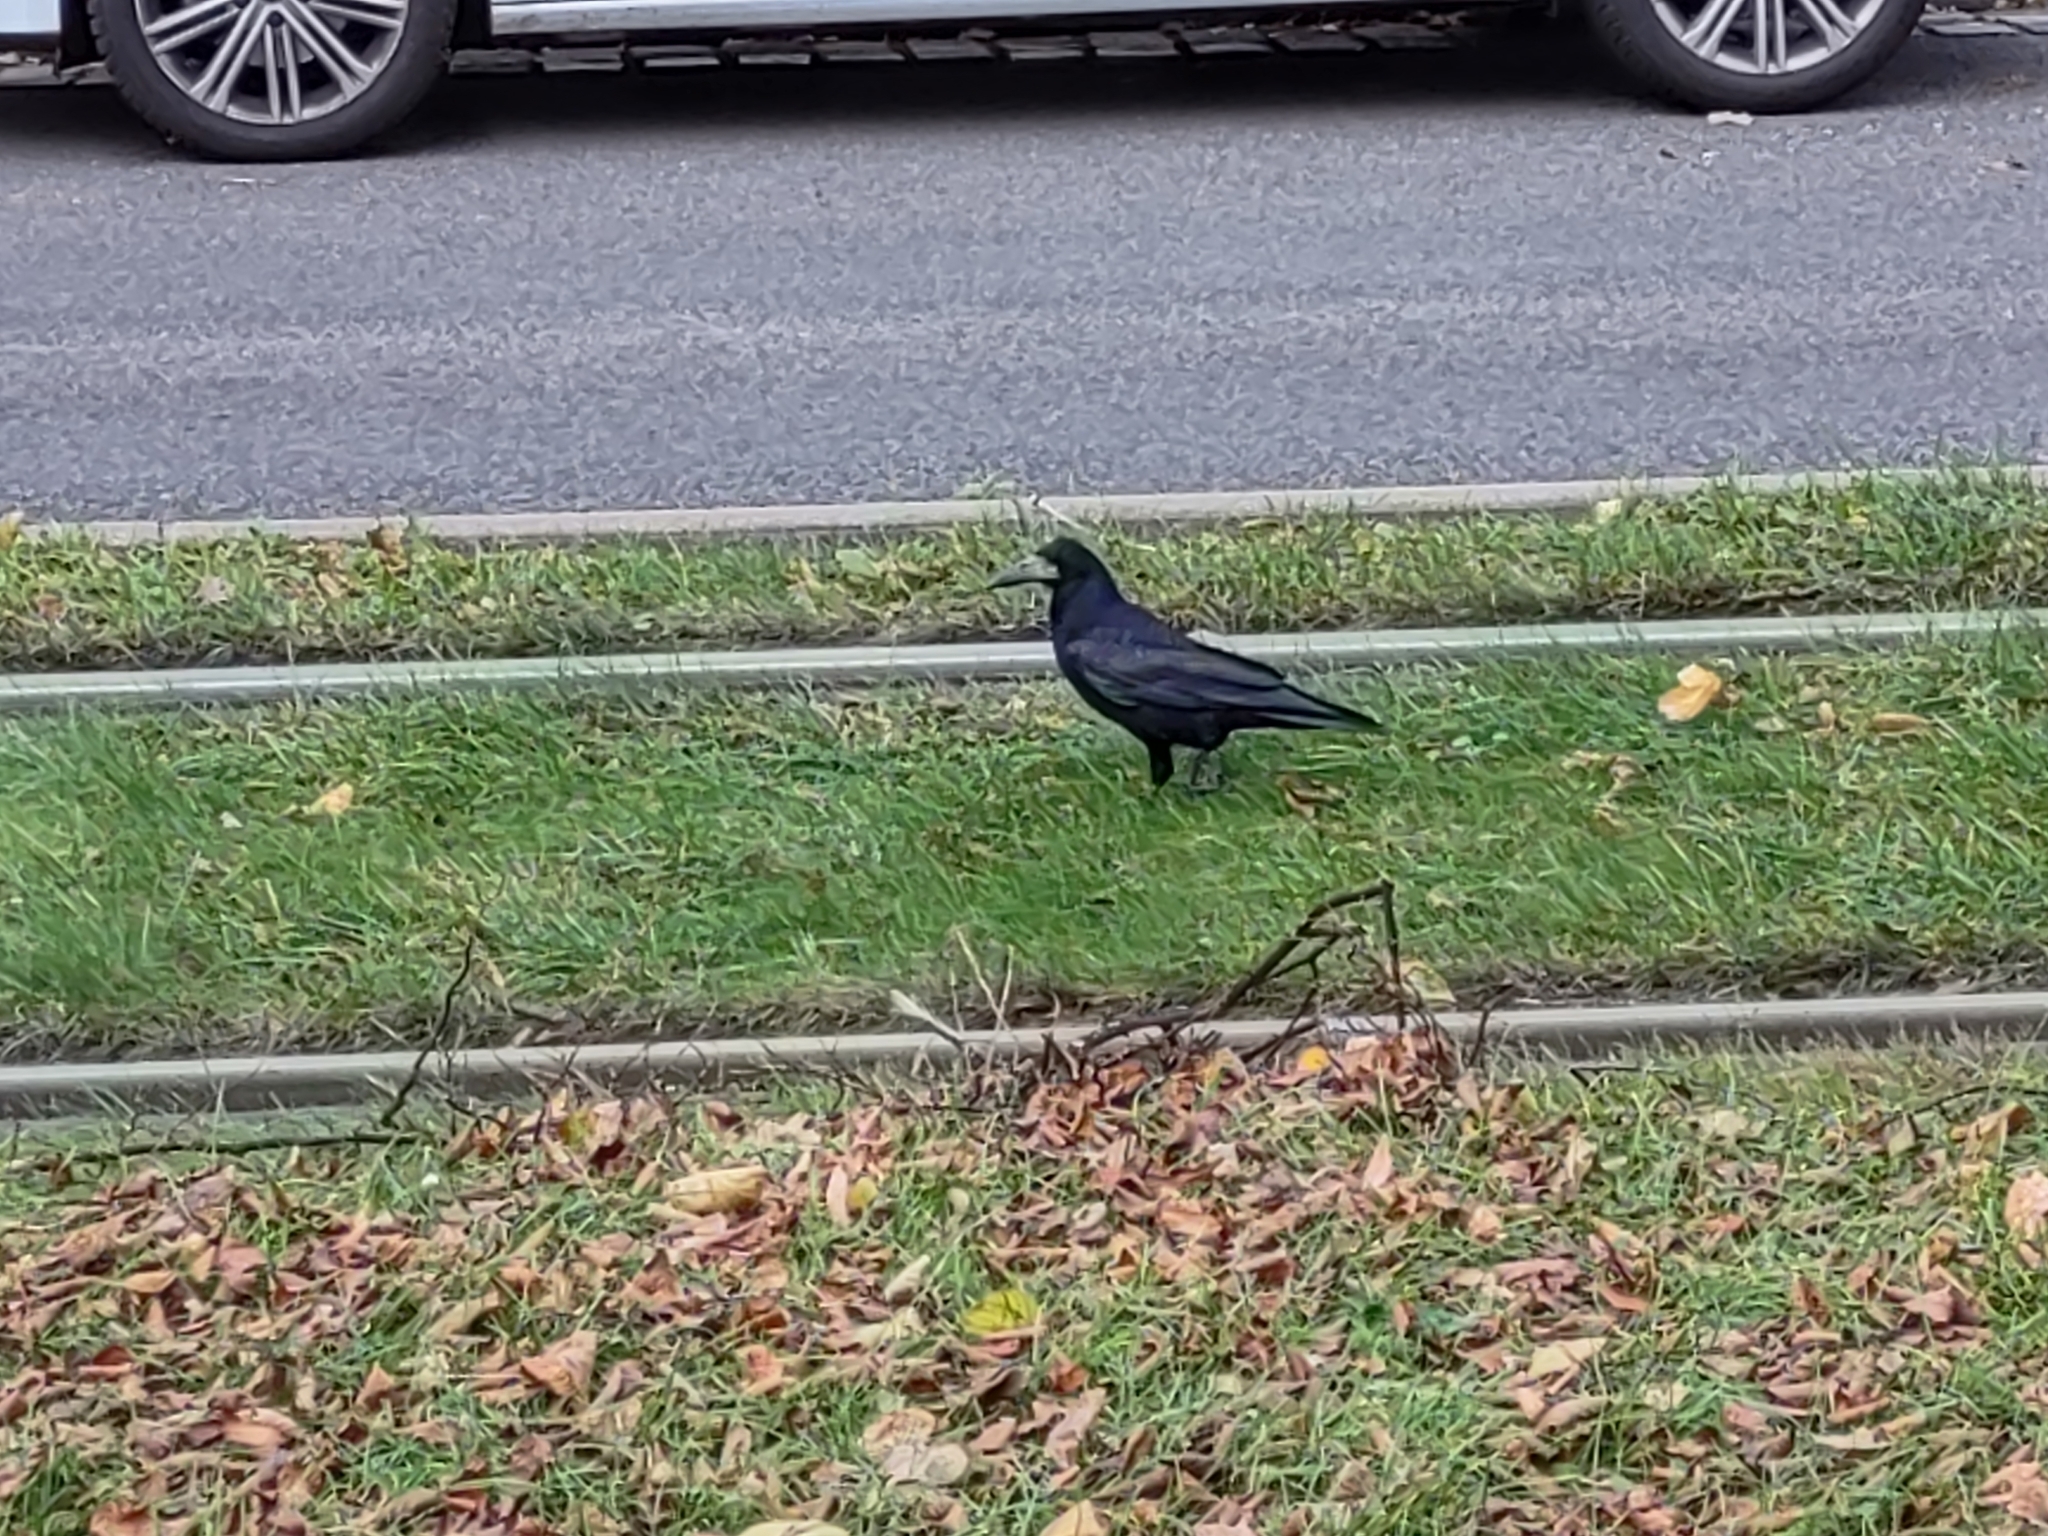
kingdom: Animalia
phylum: Chordata
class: Aves
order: Passeriformes
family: Corvidae
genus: Corvus
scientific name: Corvus frugilegus
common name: Rook
